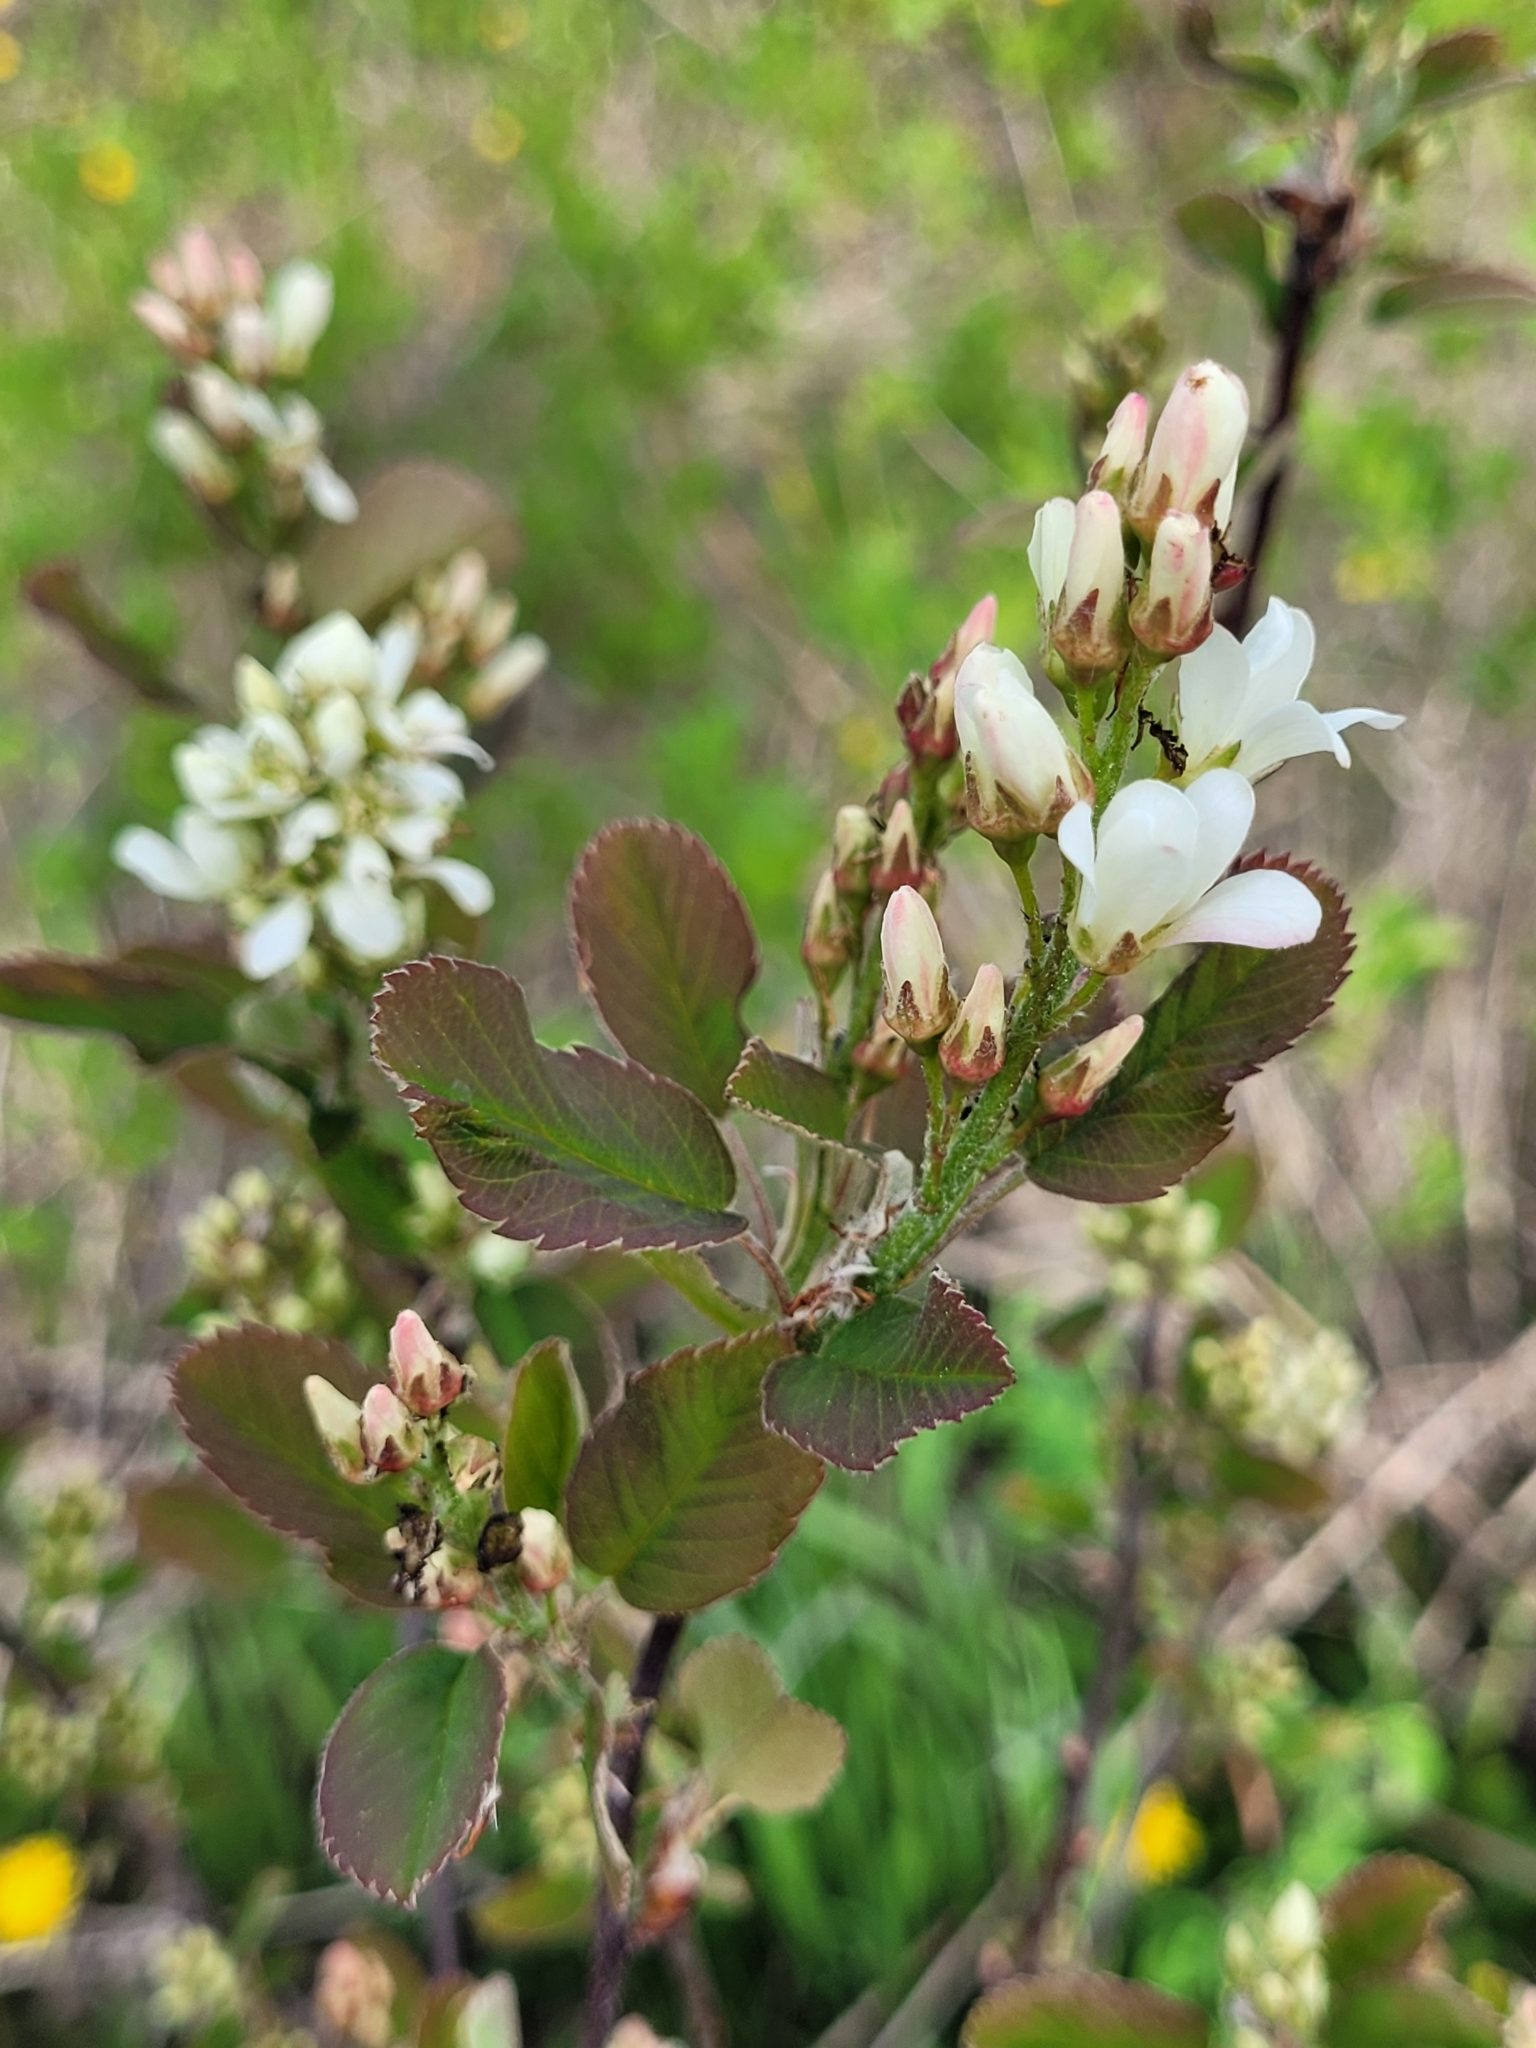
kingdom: Plantae
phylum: Tracheophyta
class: Magnoliopsida
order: Rosales
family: Rosaceae
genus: Amelanchier
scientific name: Amelanchier alnifolia
